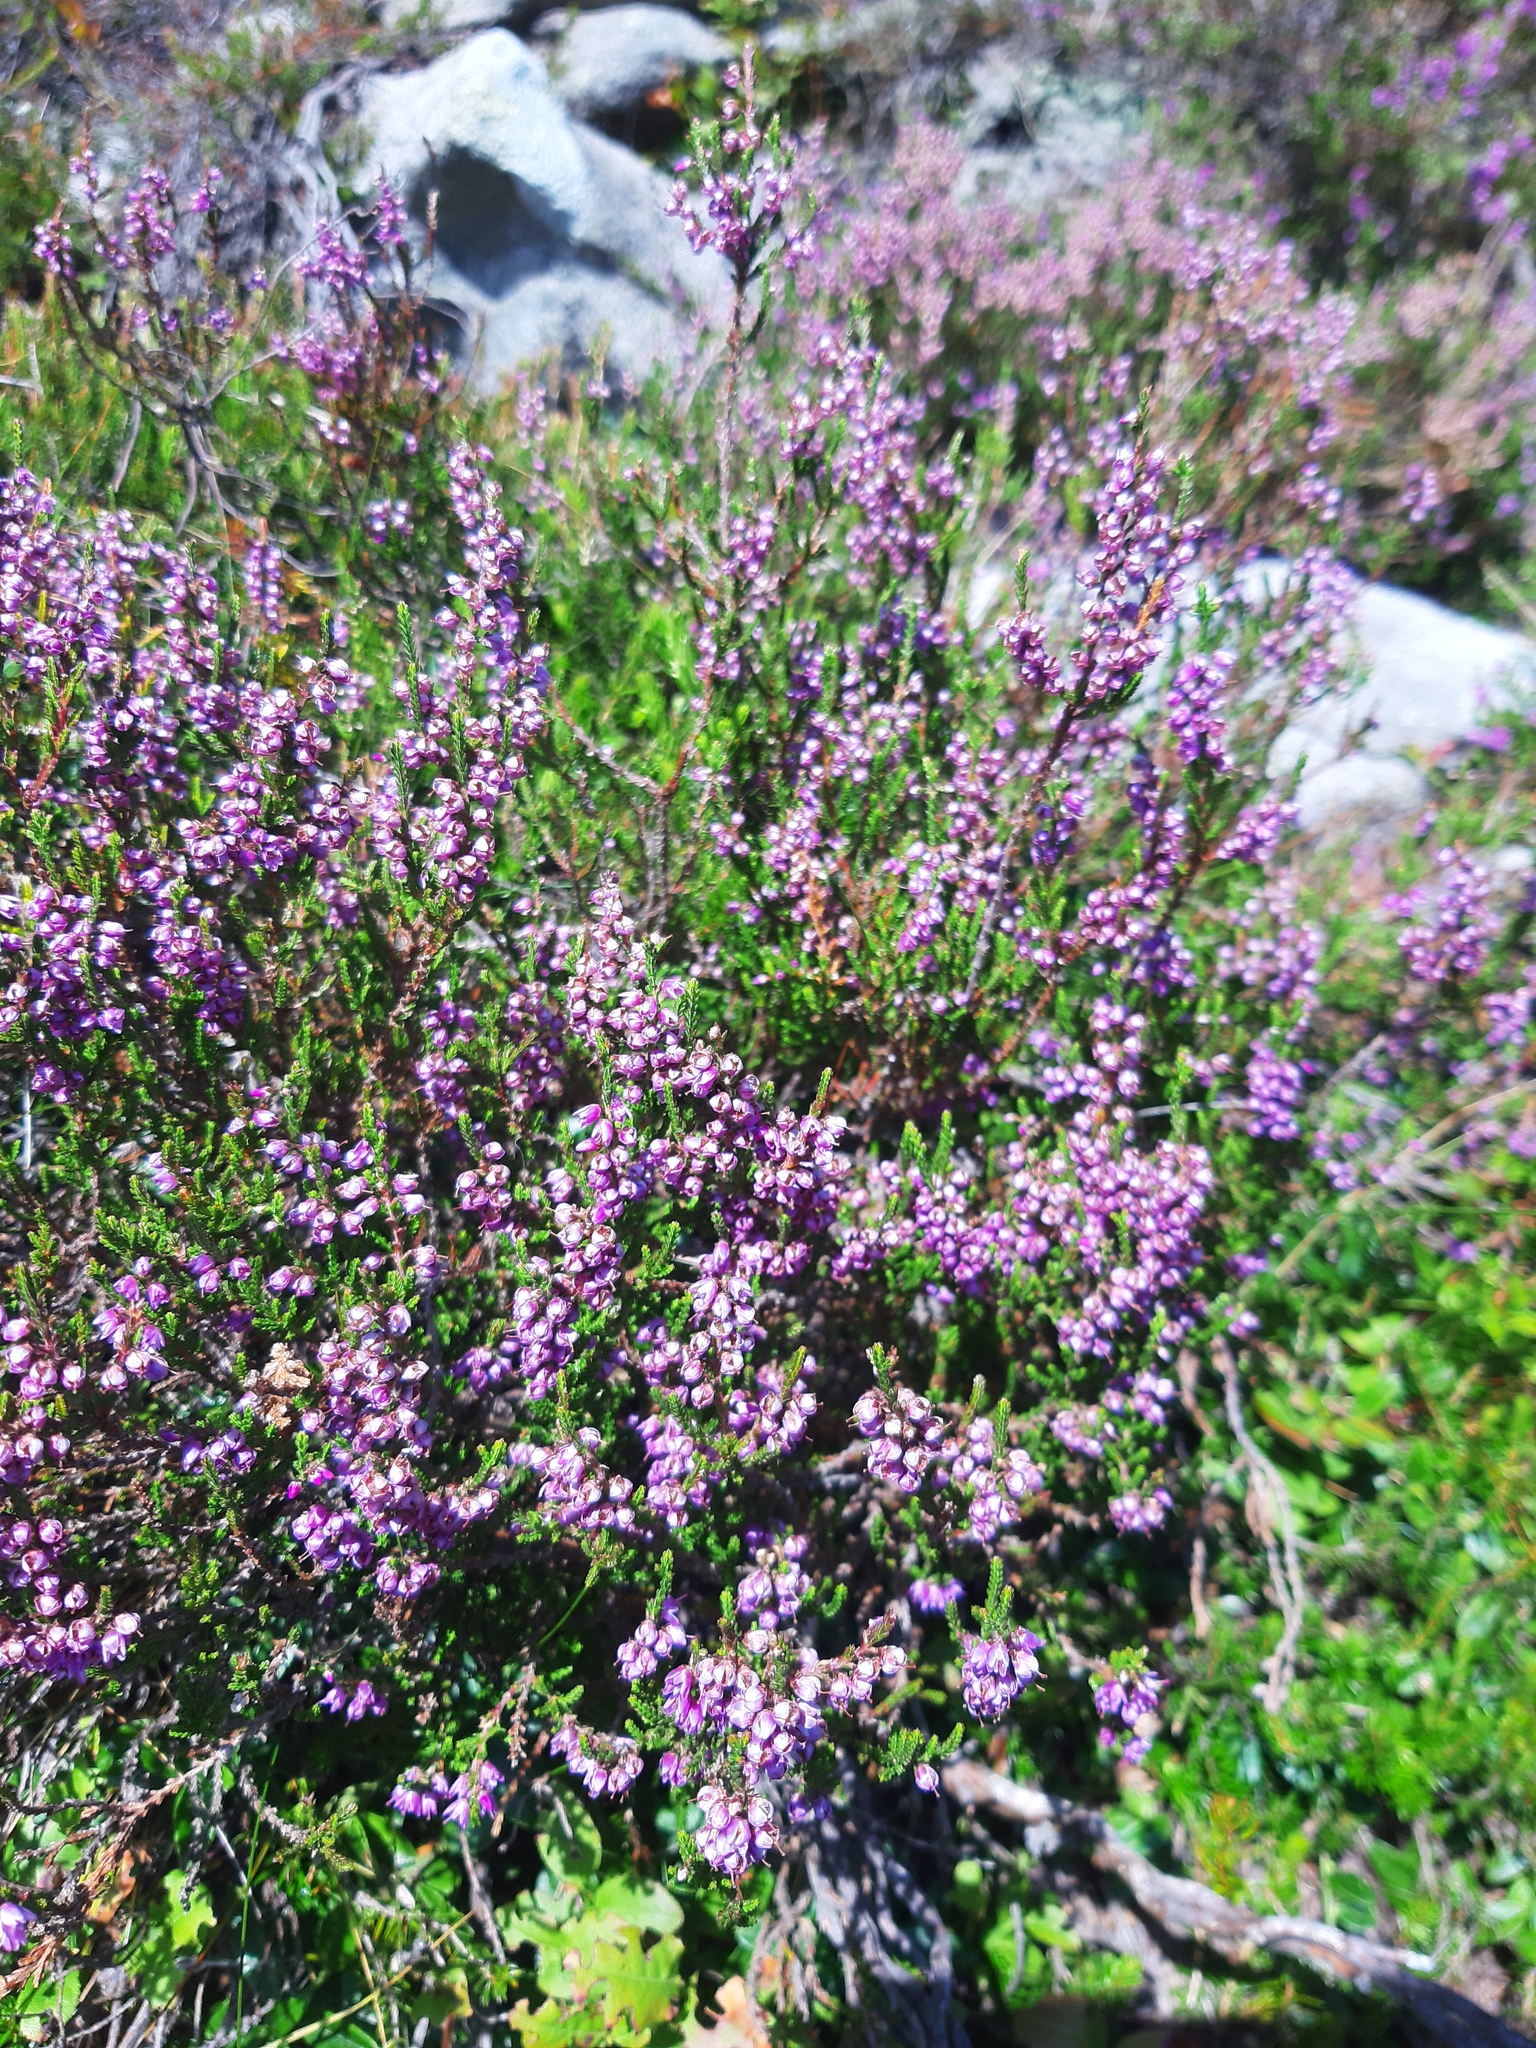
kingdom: Plantae
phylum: Tracheophyta
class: Magnoliopsida
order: Ericales
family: Ericaceae
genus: Calluna
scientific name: Calluna vulgaris
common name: Heather
